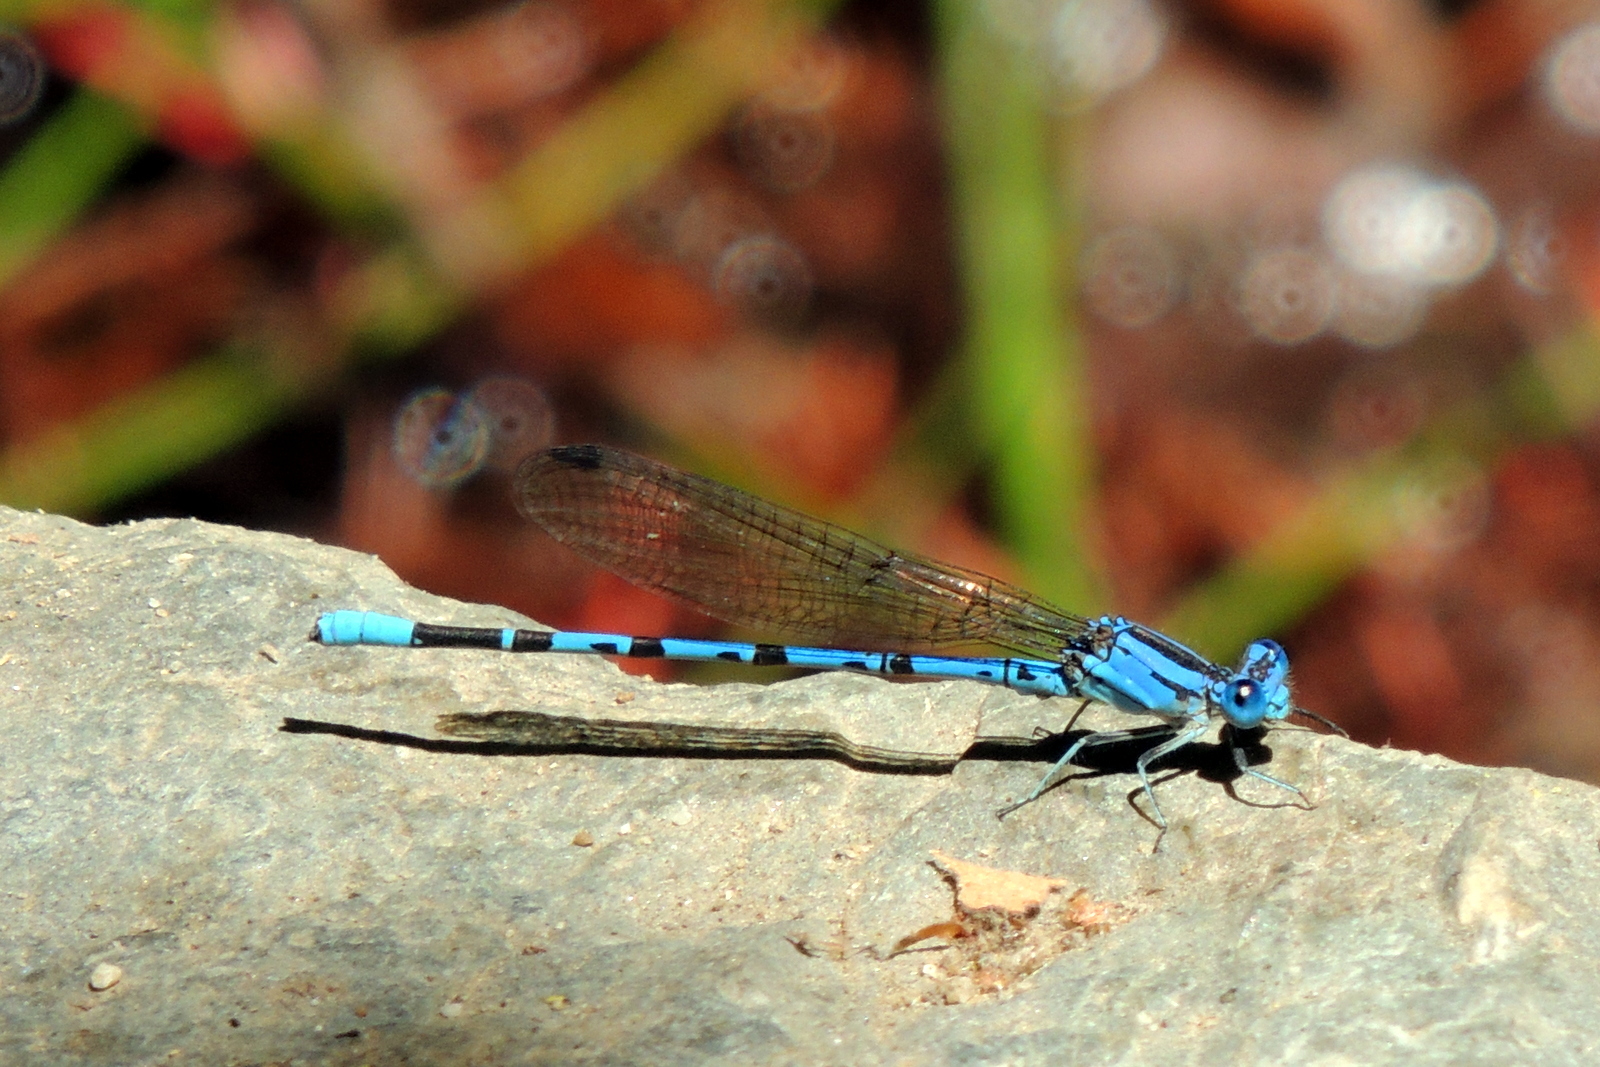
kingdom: Animalia
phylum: Arthropoda
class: Insecta
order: Odonata
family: Coenagrionidae
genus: Argia
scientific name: Argia vivida
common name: Vivid dancer
